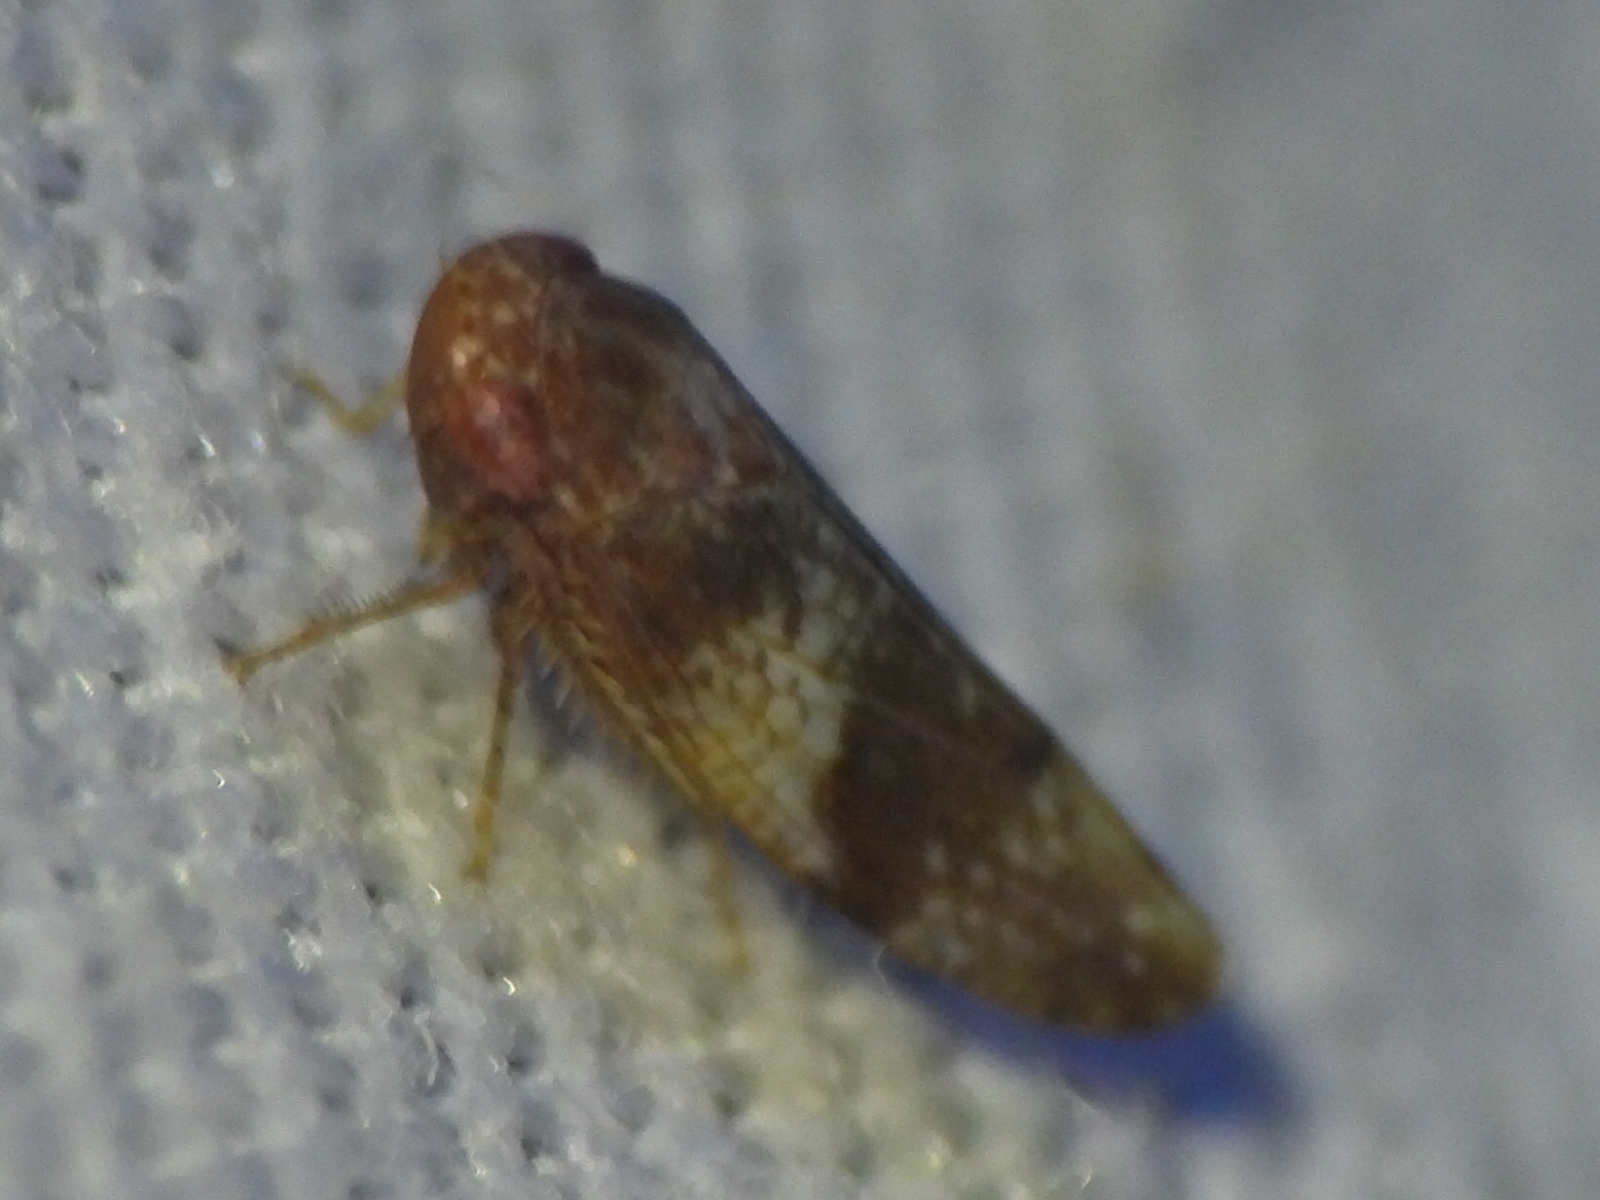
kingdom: Animalia
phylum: Arthropoda
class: Insecta
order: Hemiptera
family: Cicadellidae
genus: Norvellina
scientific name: Norvellina helenae
